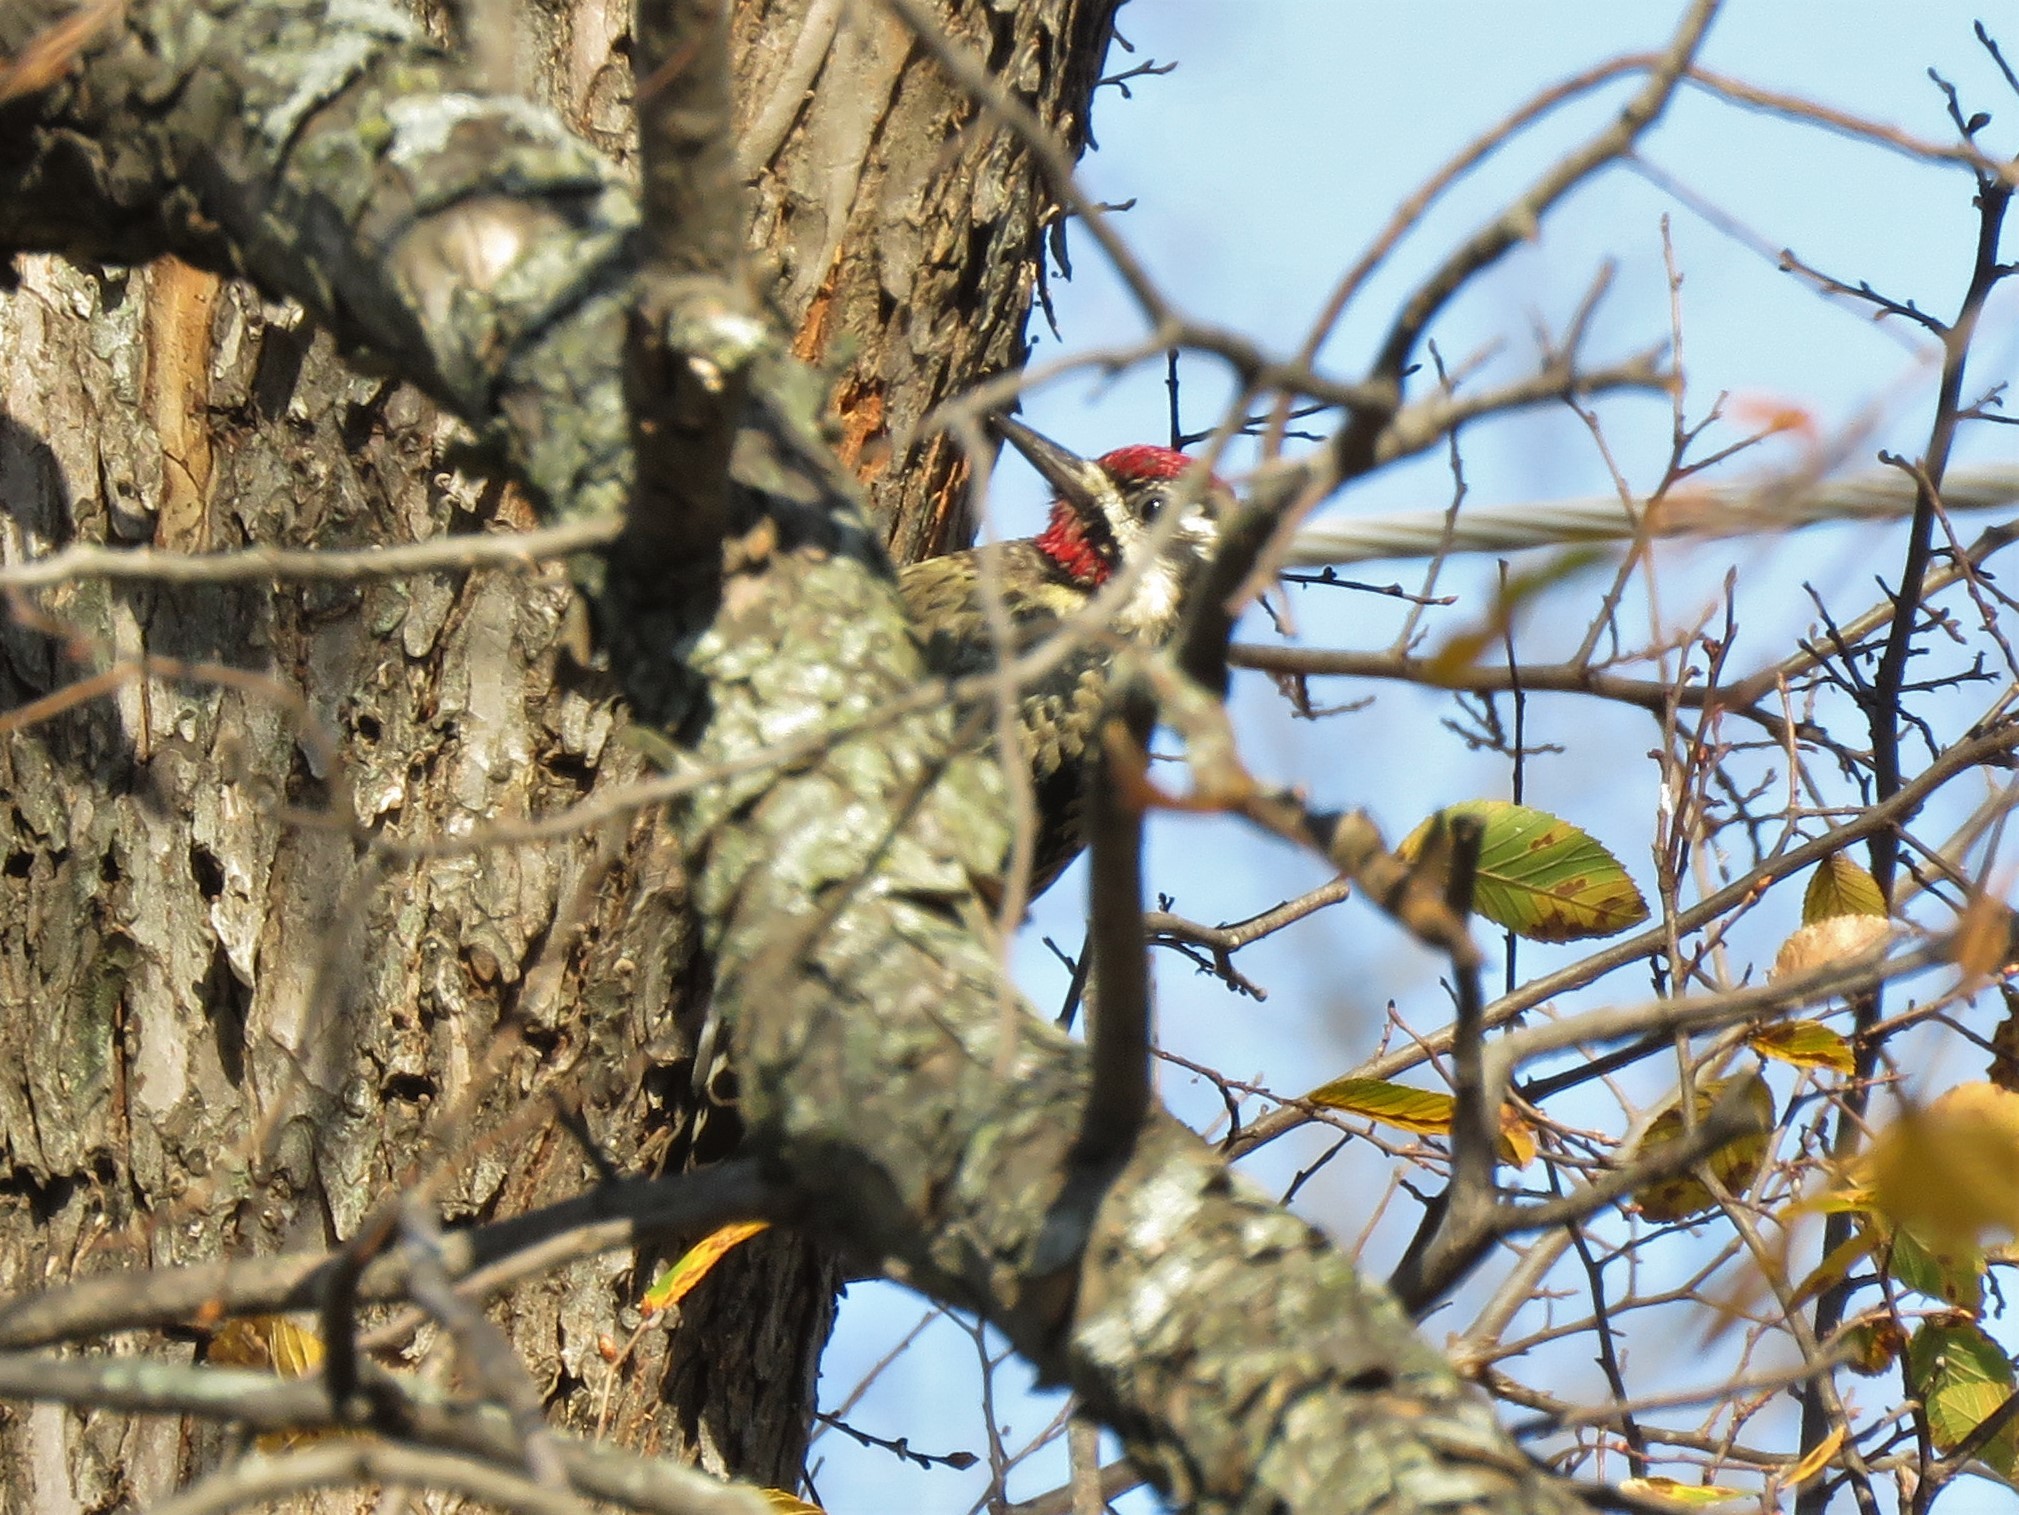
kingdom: Animalia
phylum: Chordata
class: Aves
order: Piciformes
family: Picidae
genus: Sphyrapicus
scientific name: Sphyrapicus varius
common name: Yellow-bellied sapsucker
